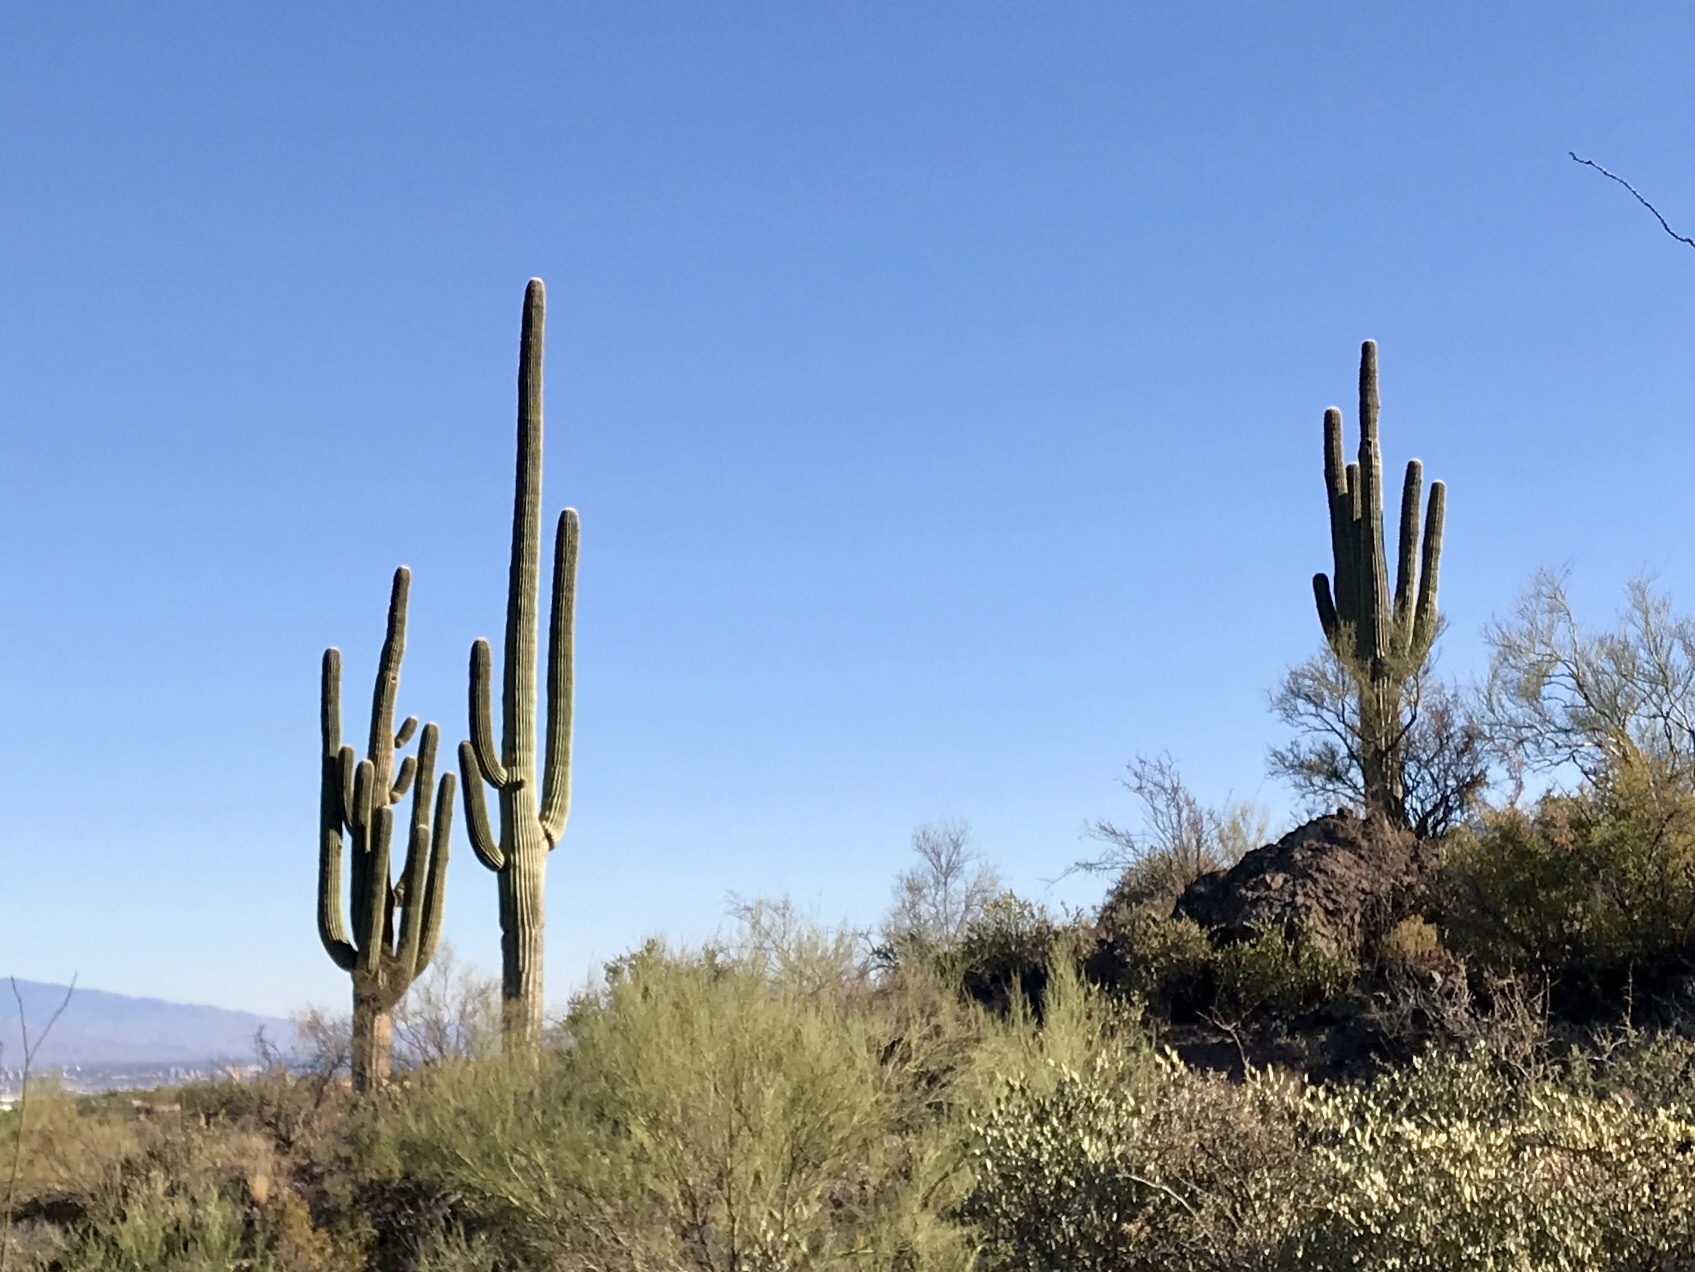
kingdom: Plantae
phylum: Tracheophyta
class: Magnoliopsida
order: Caryophyllales
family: Cactaceae
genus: Carnegiea
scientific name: Carnegiea gigantea
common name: Saguaro
